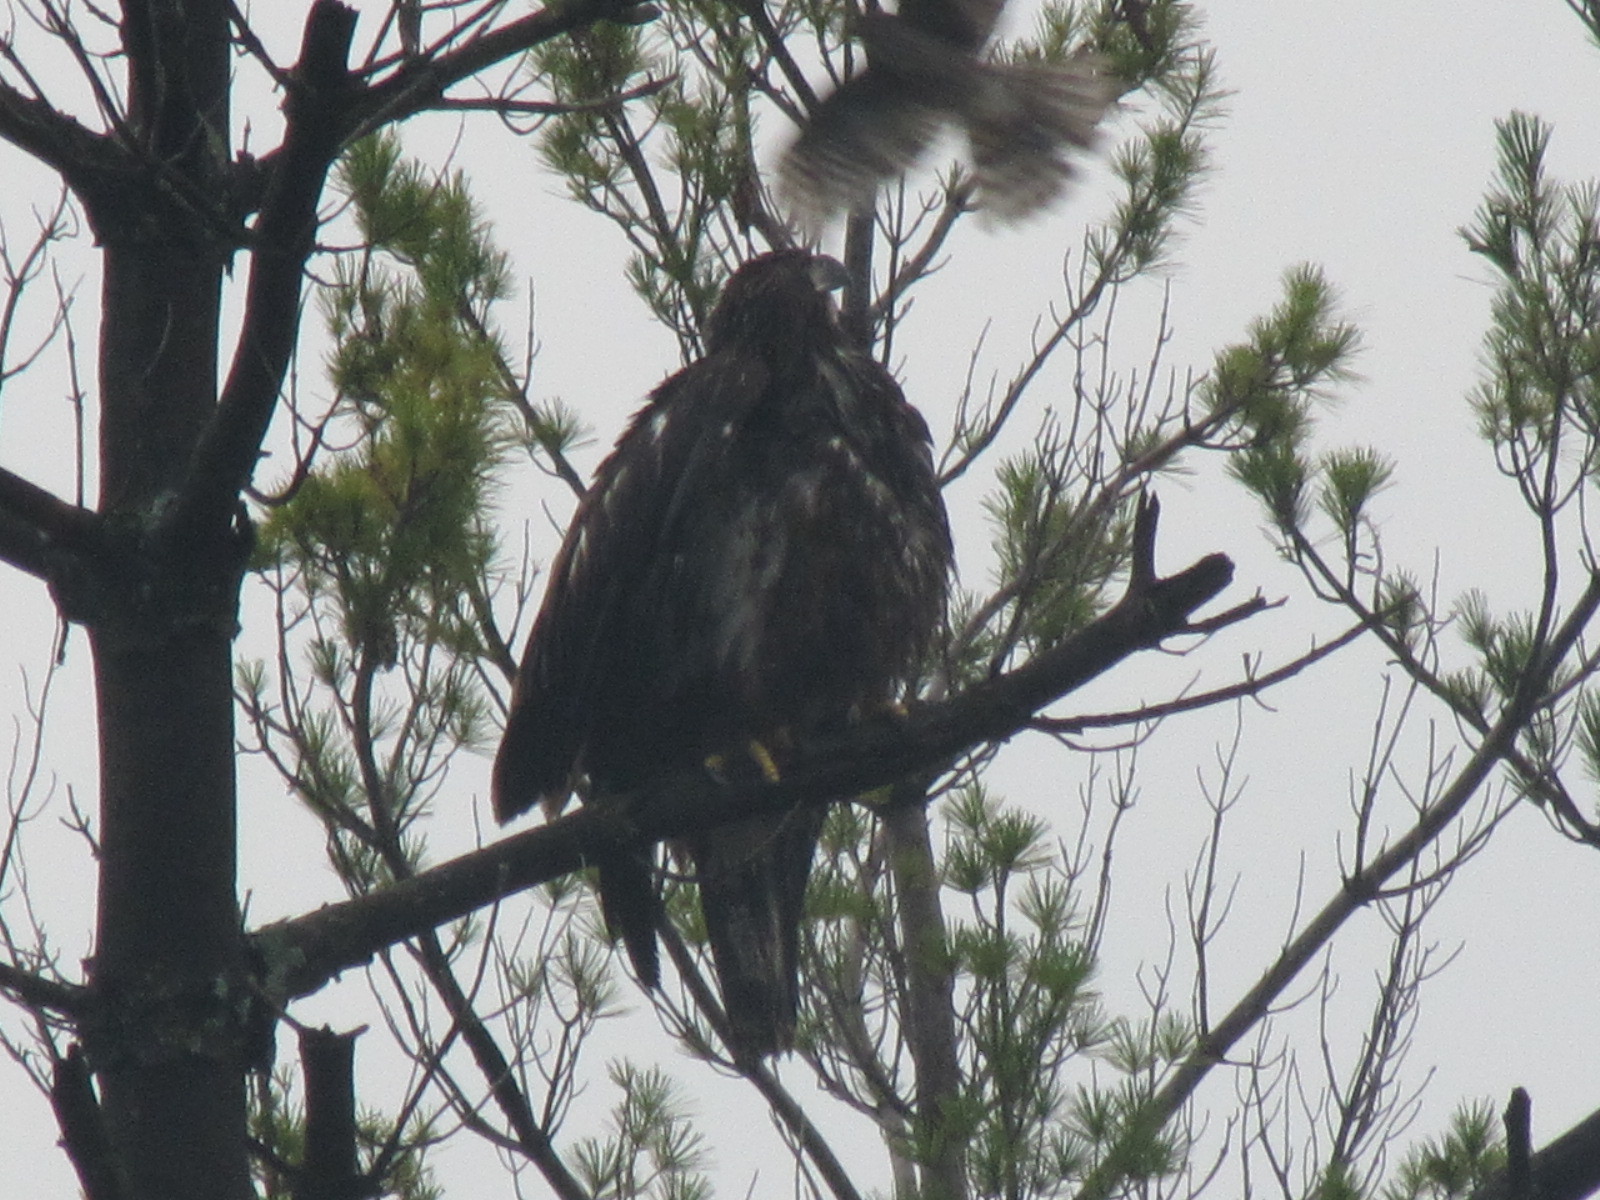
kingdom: Animalia
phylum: Chordata
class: Aves
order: Accipitriformes
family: Accipitridae
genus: Haliaeetus
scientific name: Haliaeetus leucocephalus
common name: Bald eagle
